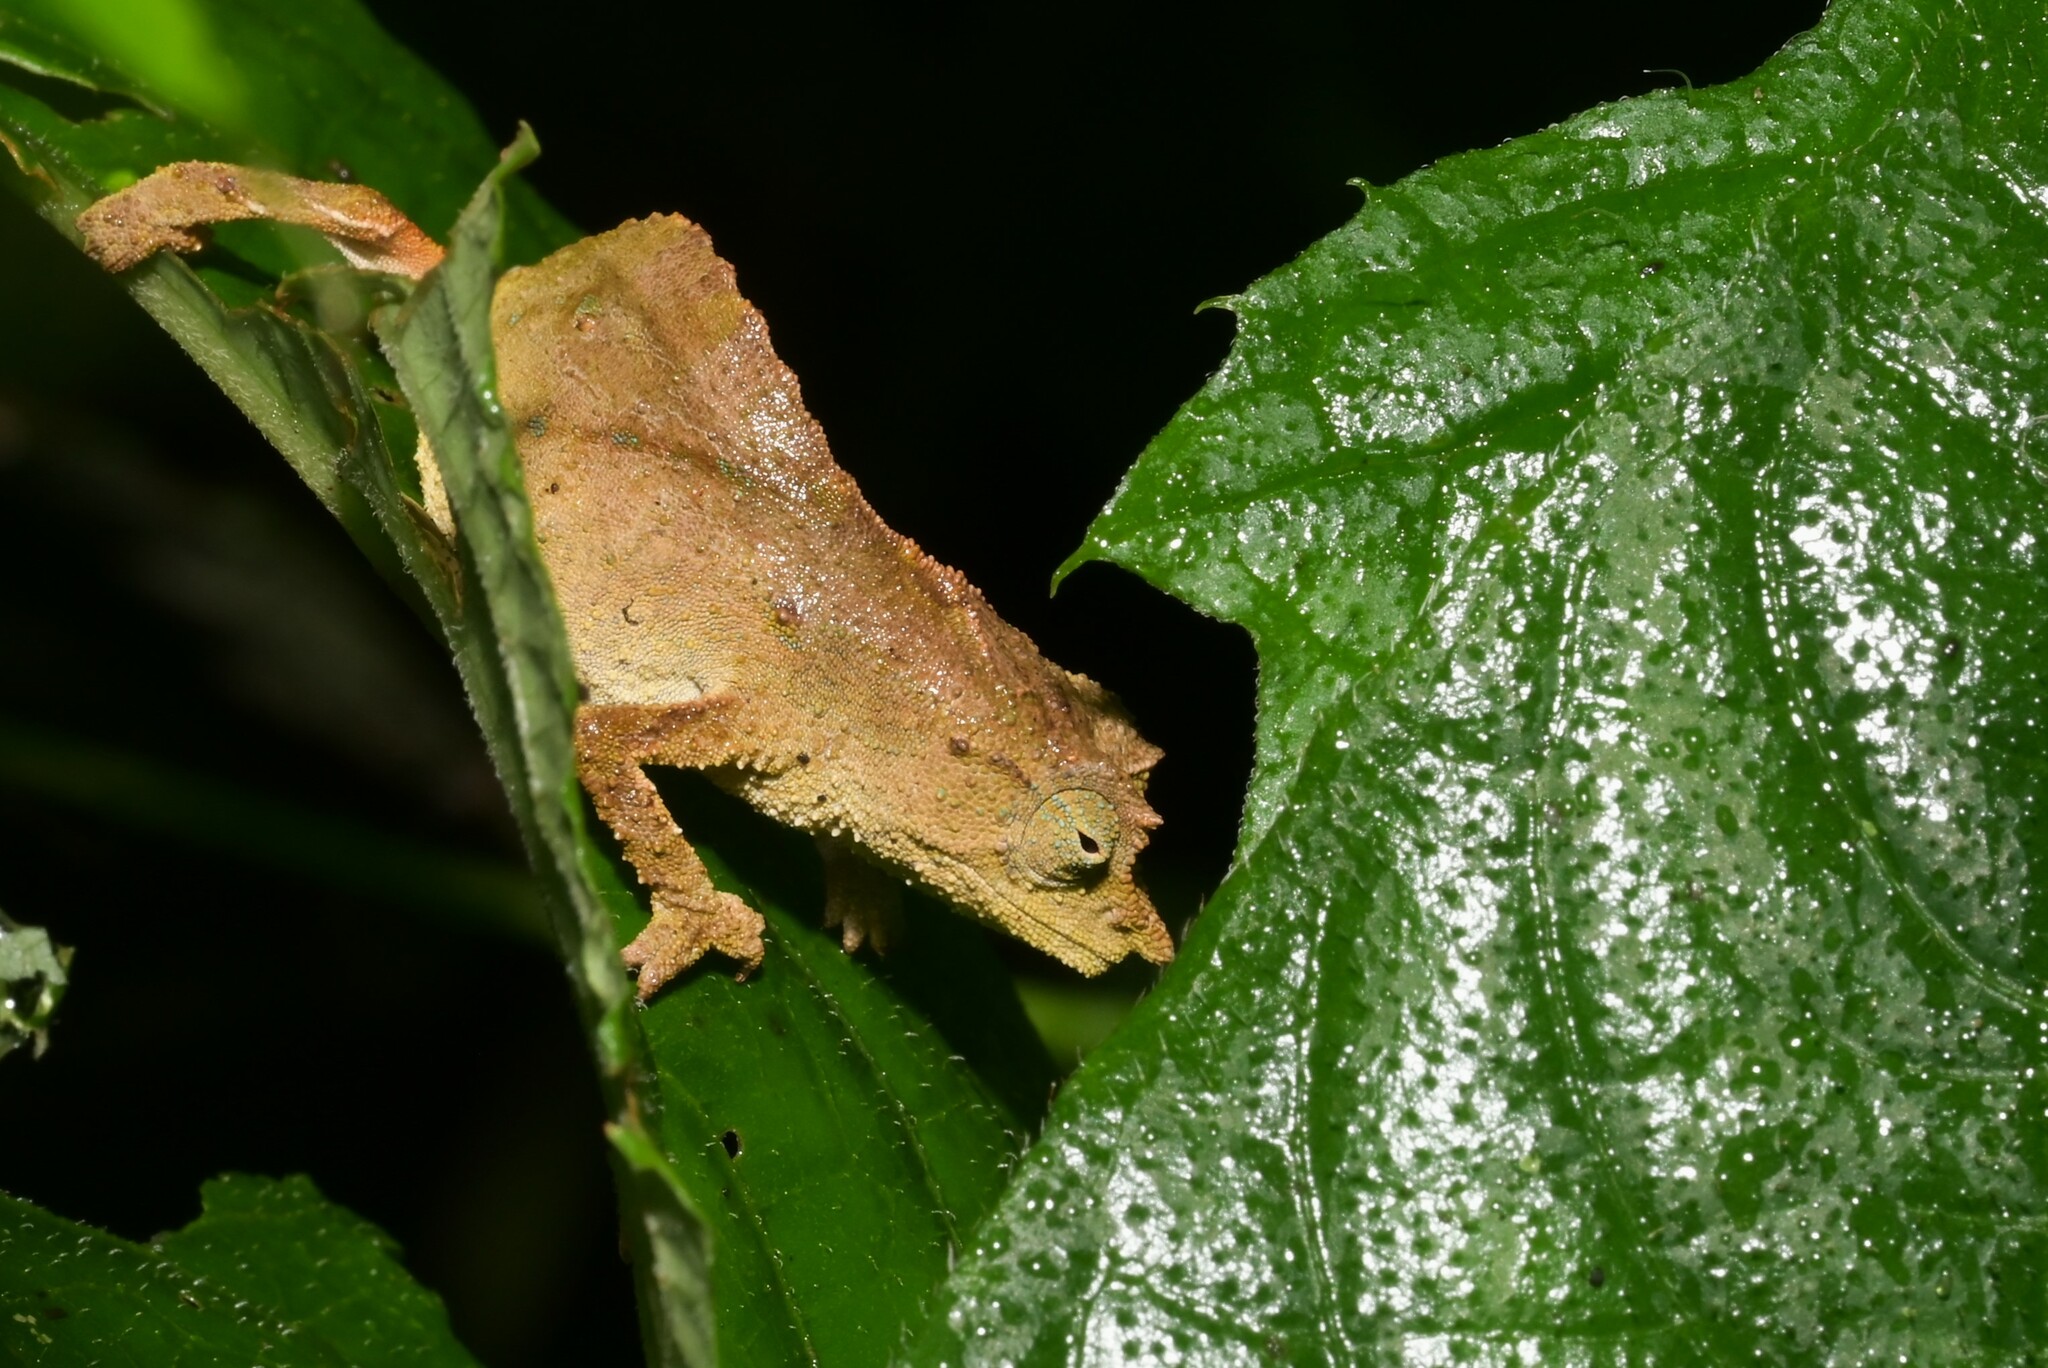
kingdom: Animalia
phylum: Chordata
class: Squamata
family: Chamaeleonidae
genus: Rhampholeon
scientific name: Rhampholeon nchisiensis
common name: South african stumptail chameleon
